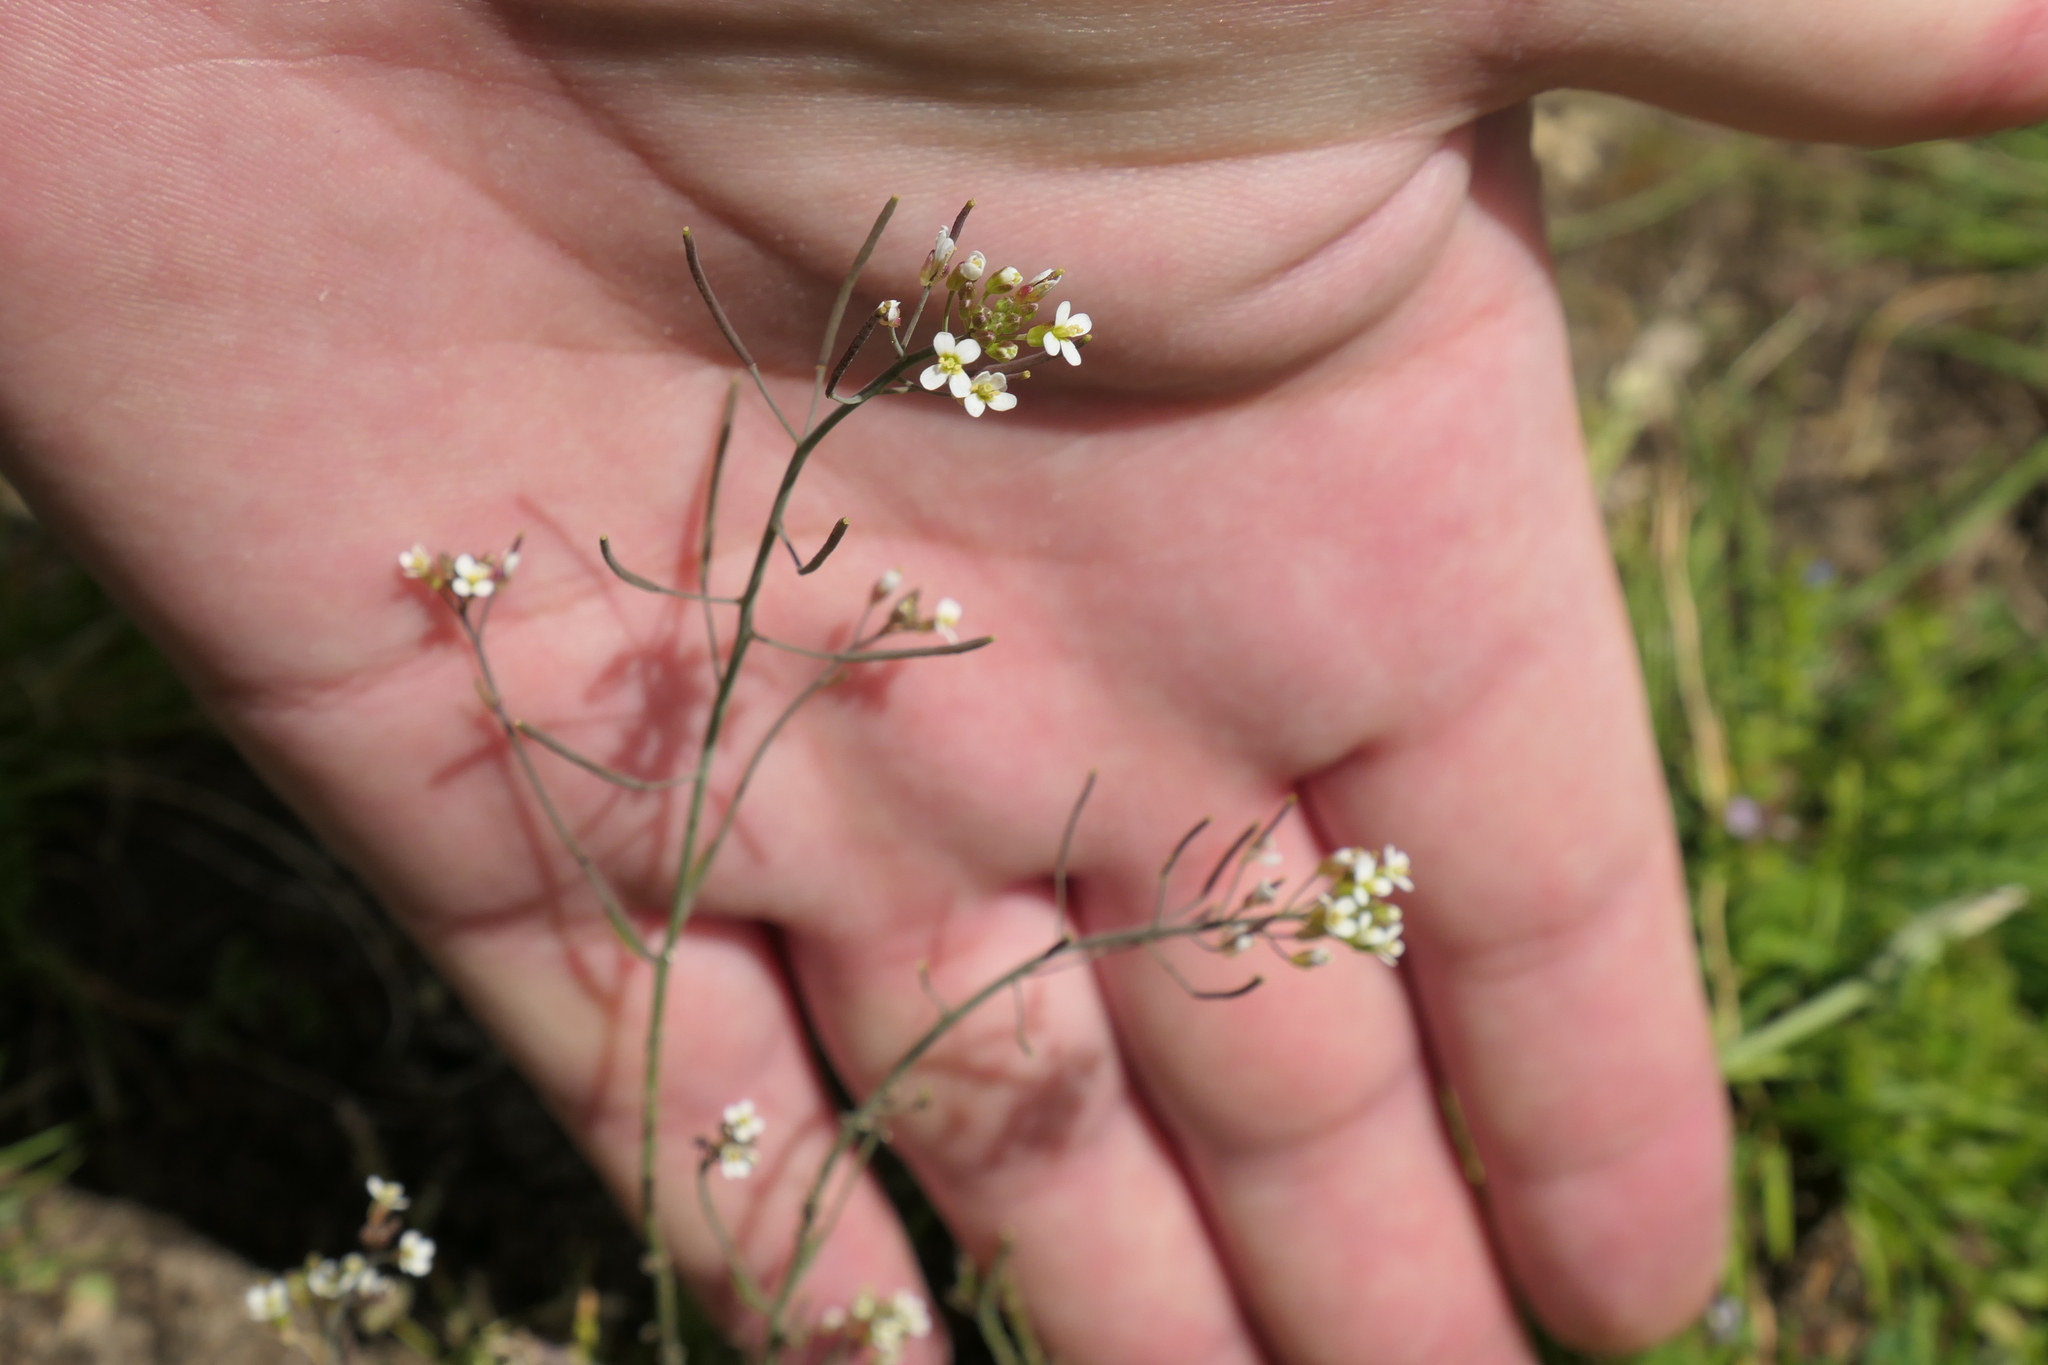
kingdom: Plantae
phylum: Tracheophyta
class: Magnoliopsida
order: Brassicales
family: Brassicaceae
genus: Arabidopsis
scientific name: Arabidopsis thaliana
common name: Thale cress
